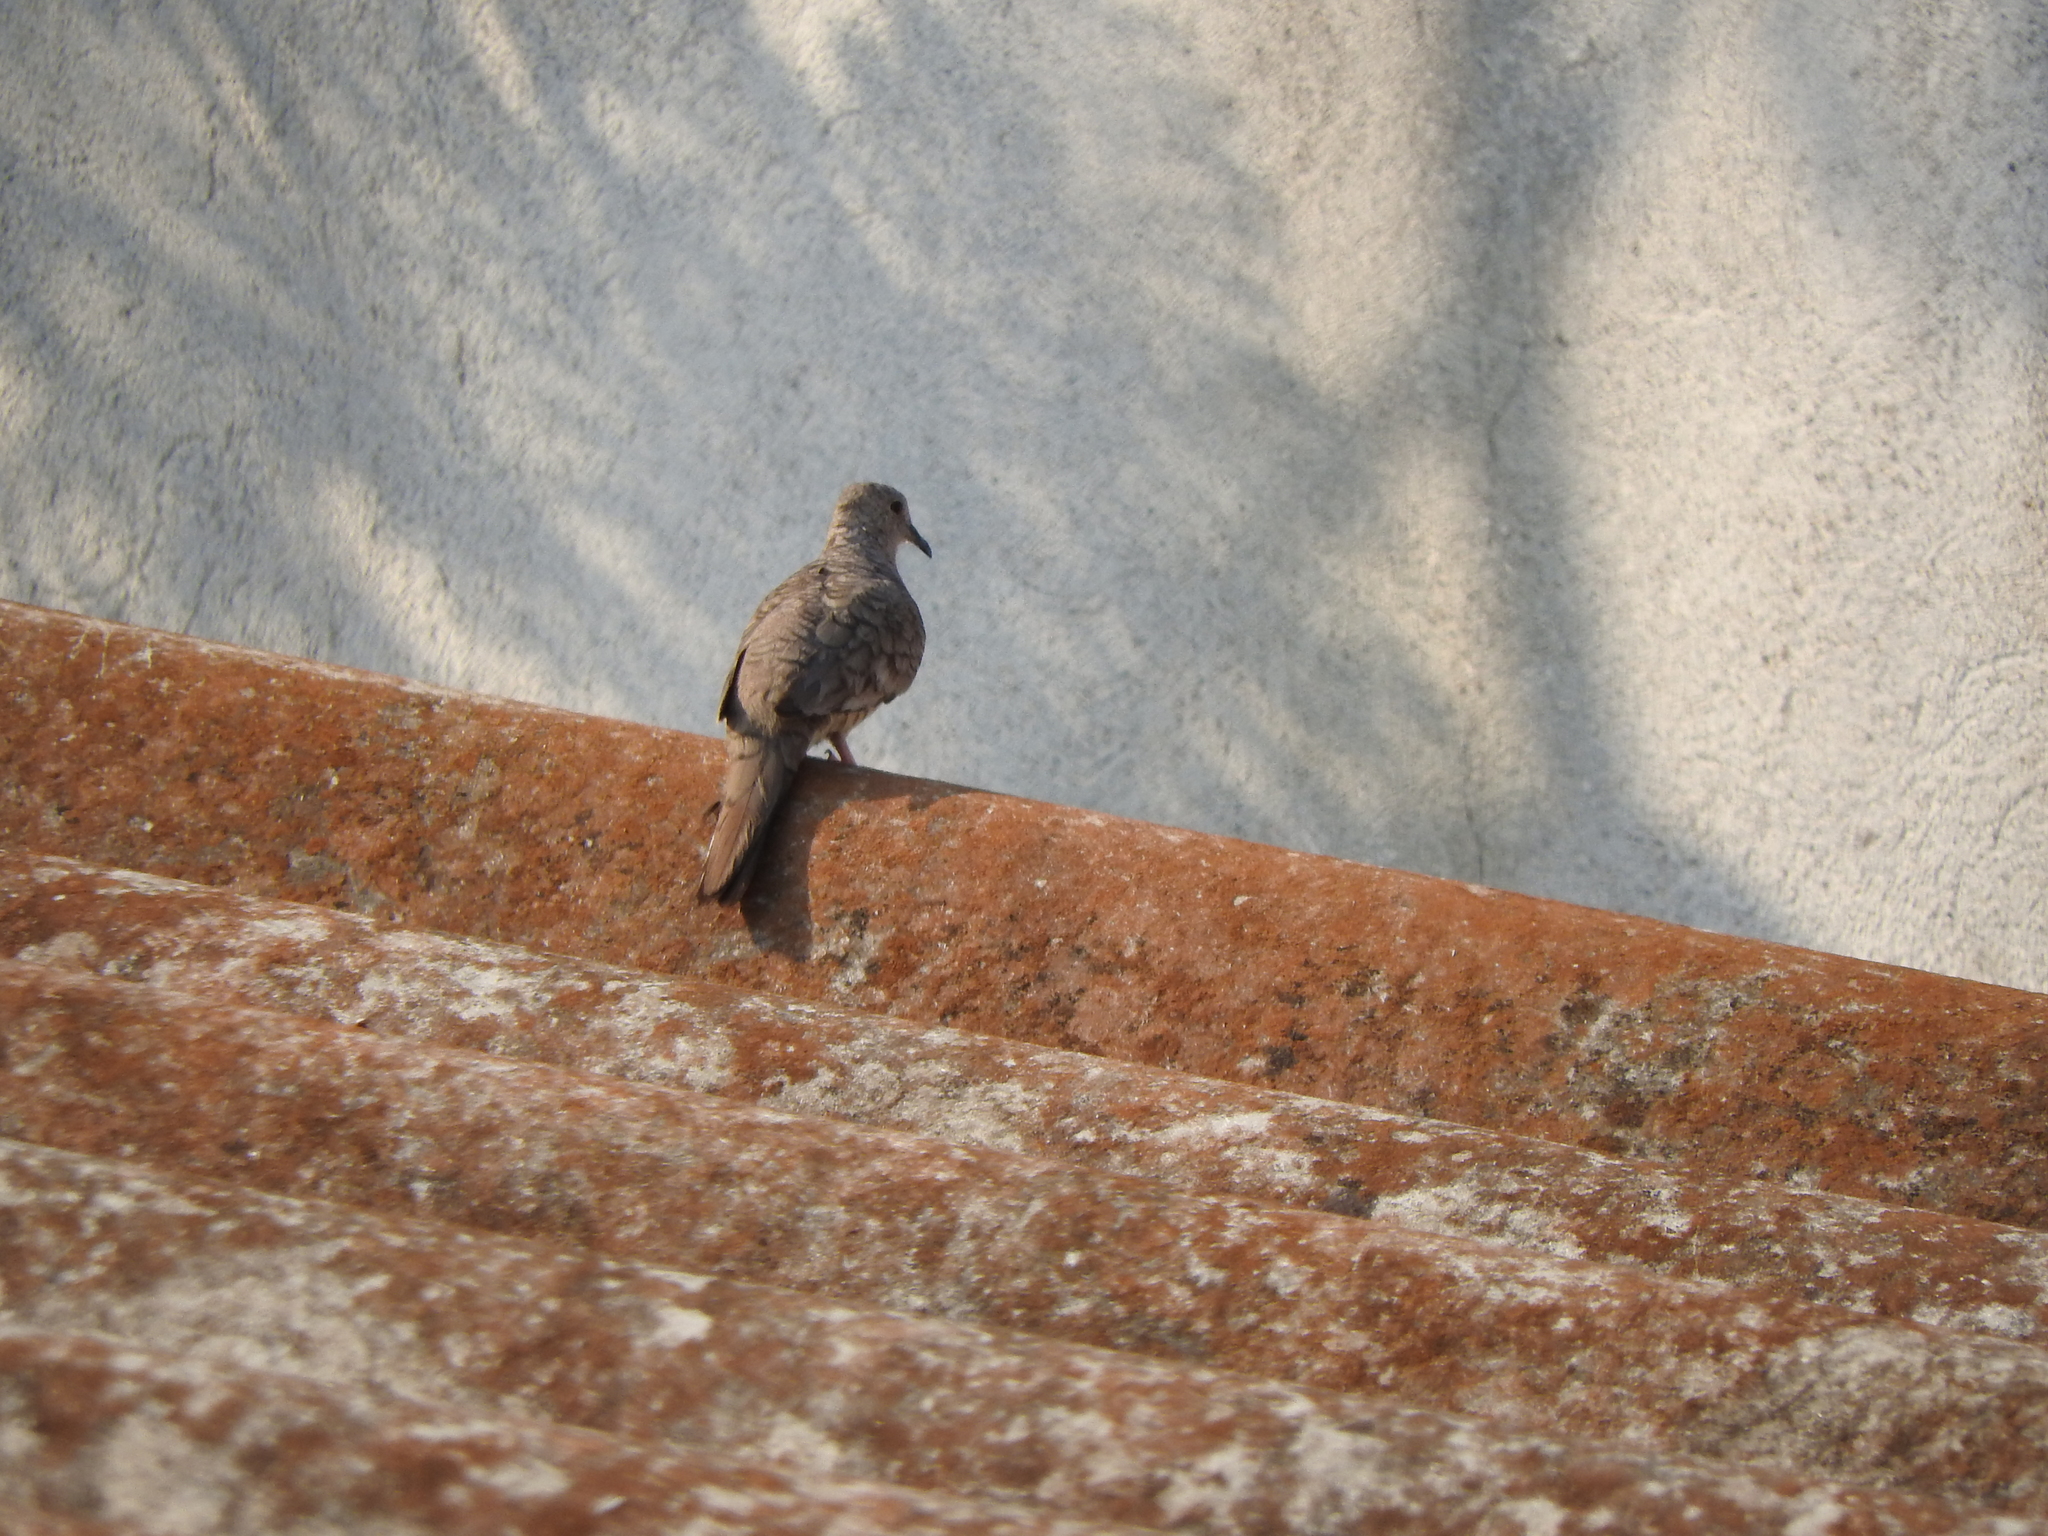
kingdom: Animalia
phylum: Chordata
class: Aves
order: Columbiformes
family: Columbidae
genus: Columbina
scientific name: Columbina inca
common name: Inca dove
